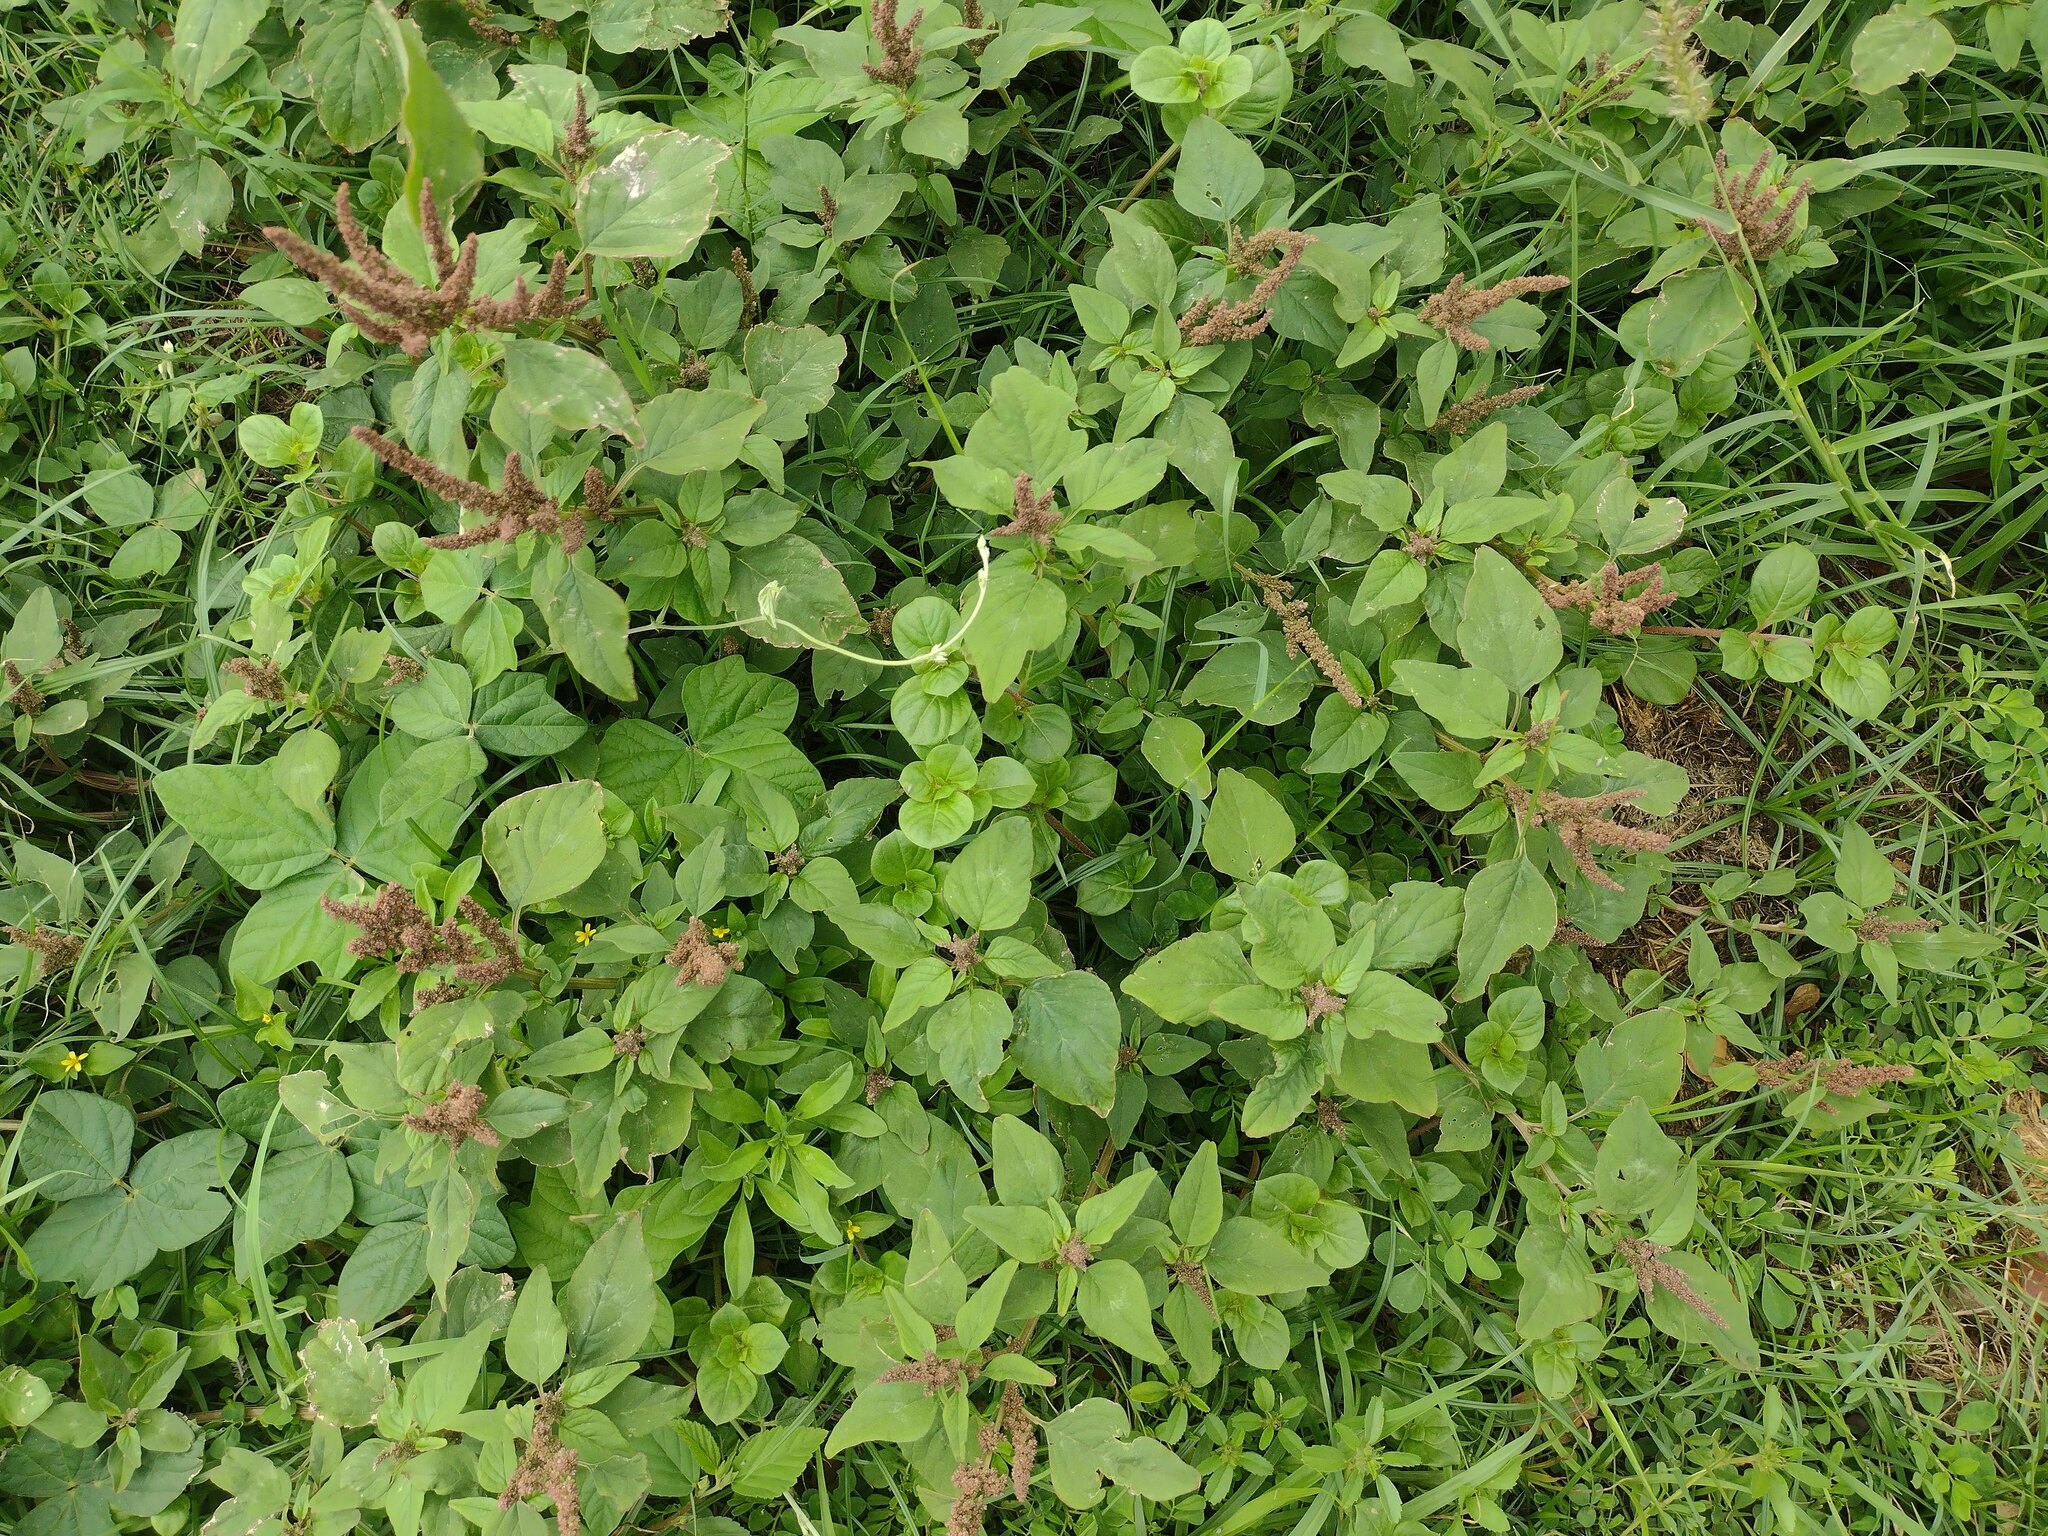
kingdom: Plantae
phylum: Tracheophyta
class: Magnoliopsida
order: Caryophyllales
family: Amaranthaceae
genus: Amaranthus
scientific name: Amaranthus viridis
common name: Slender amaranth
